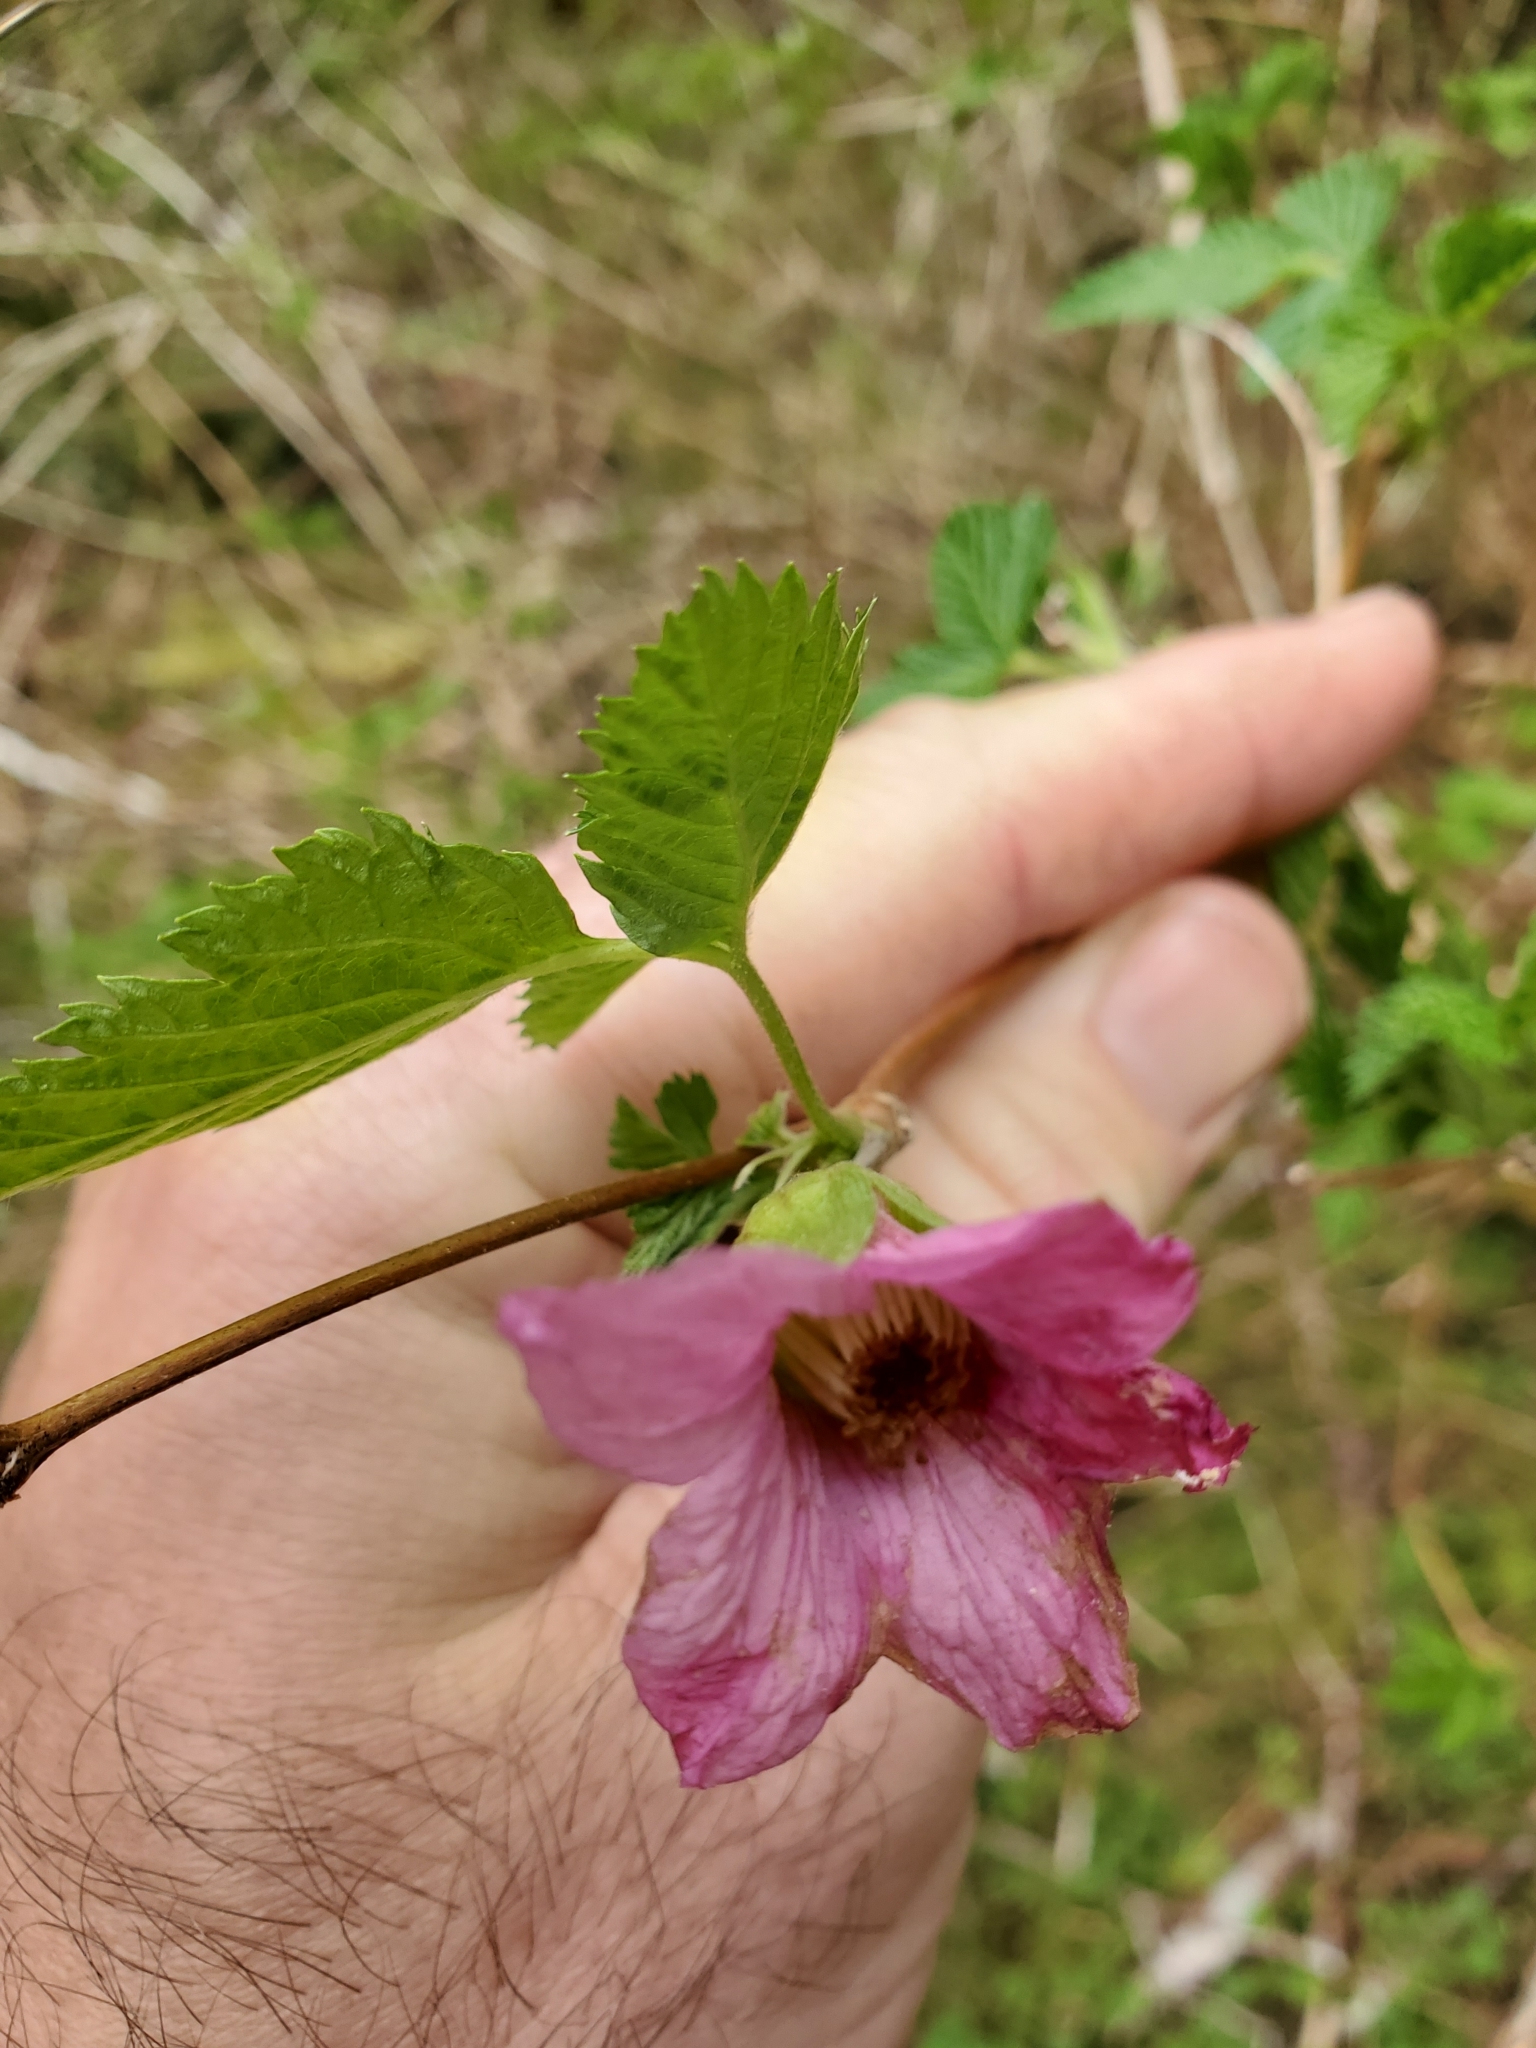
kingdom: Plantae
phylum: Tracheophyta
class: Magnoliopsida
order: Rosales
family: Rosaceae
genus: Rubus
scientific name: Rubus spectabilis
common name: Salmonberry
